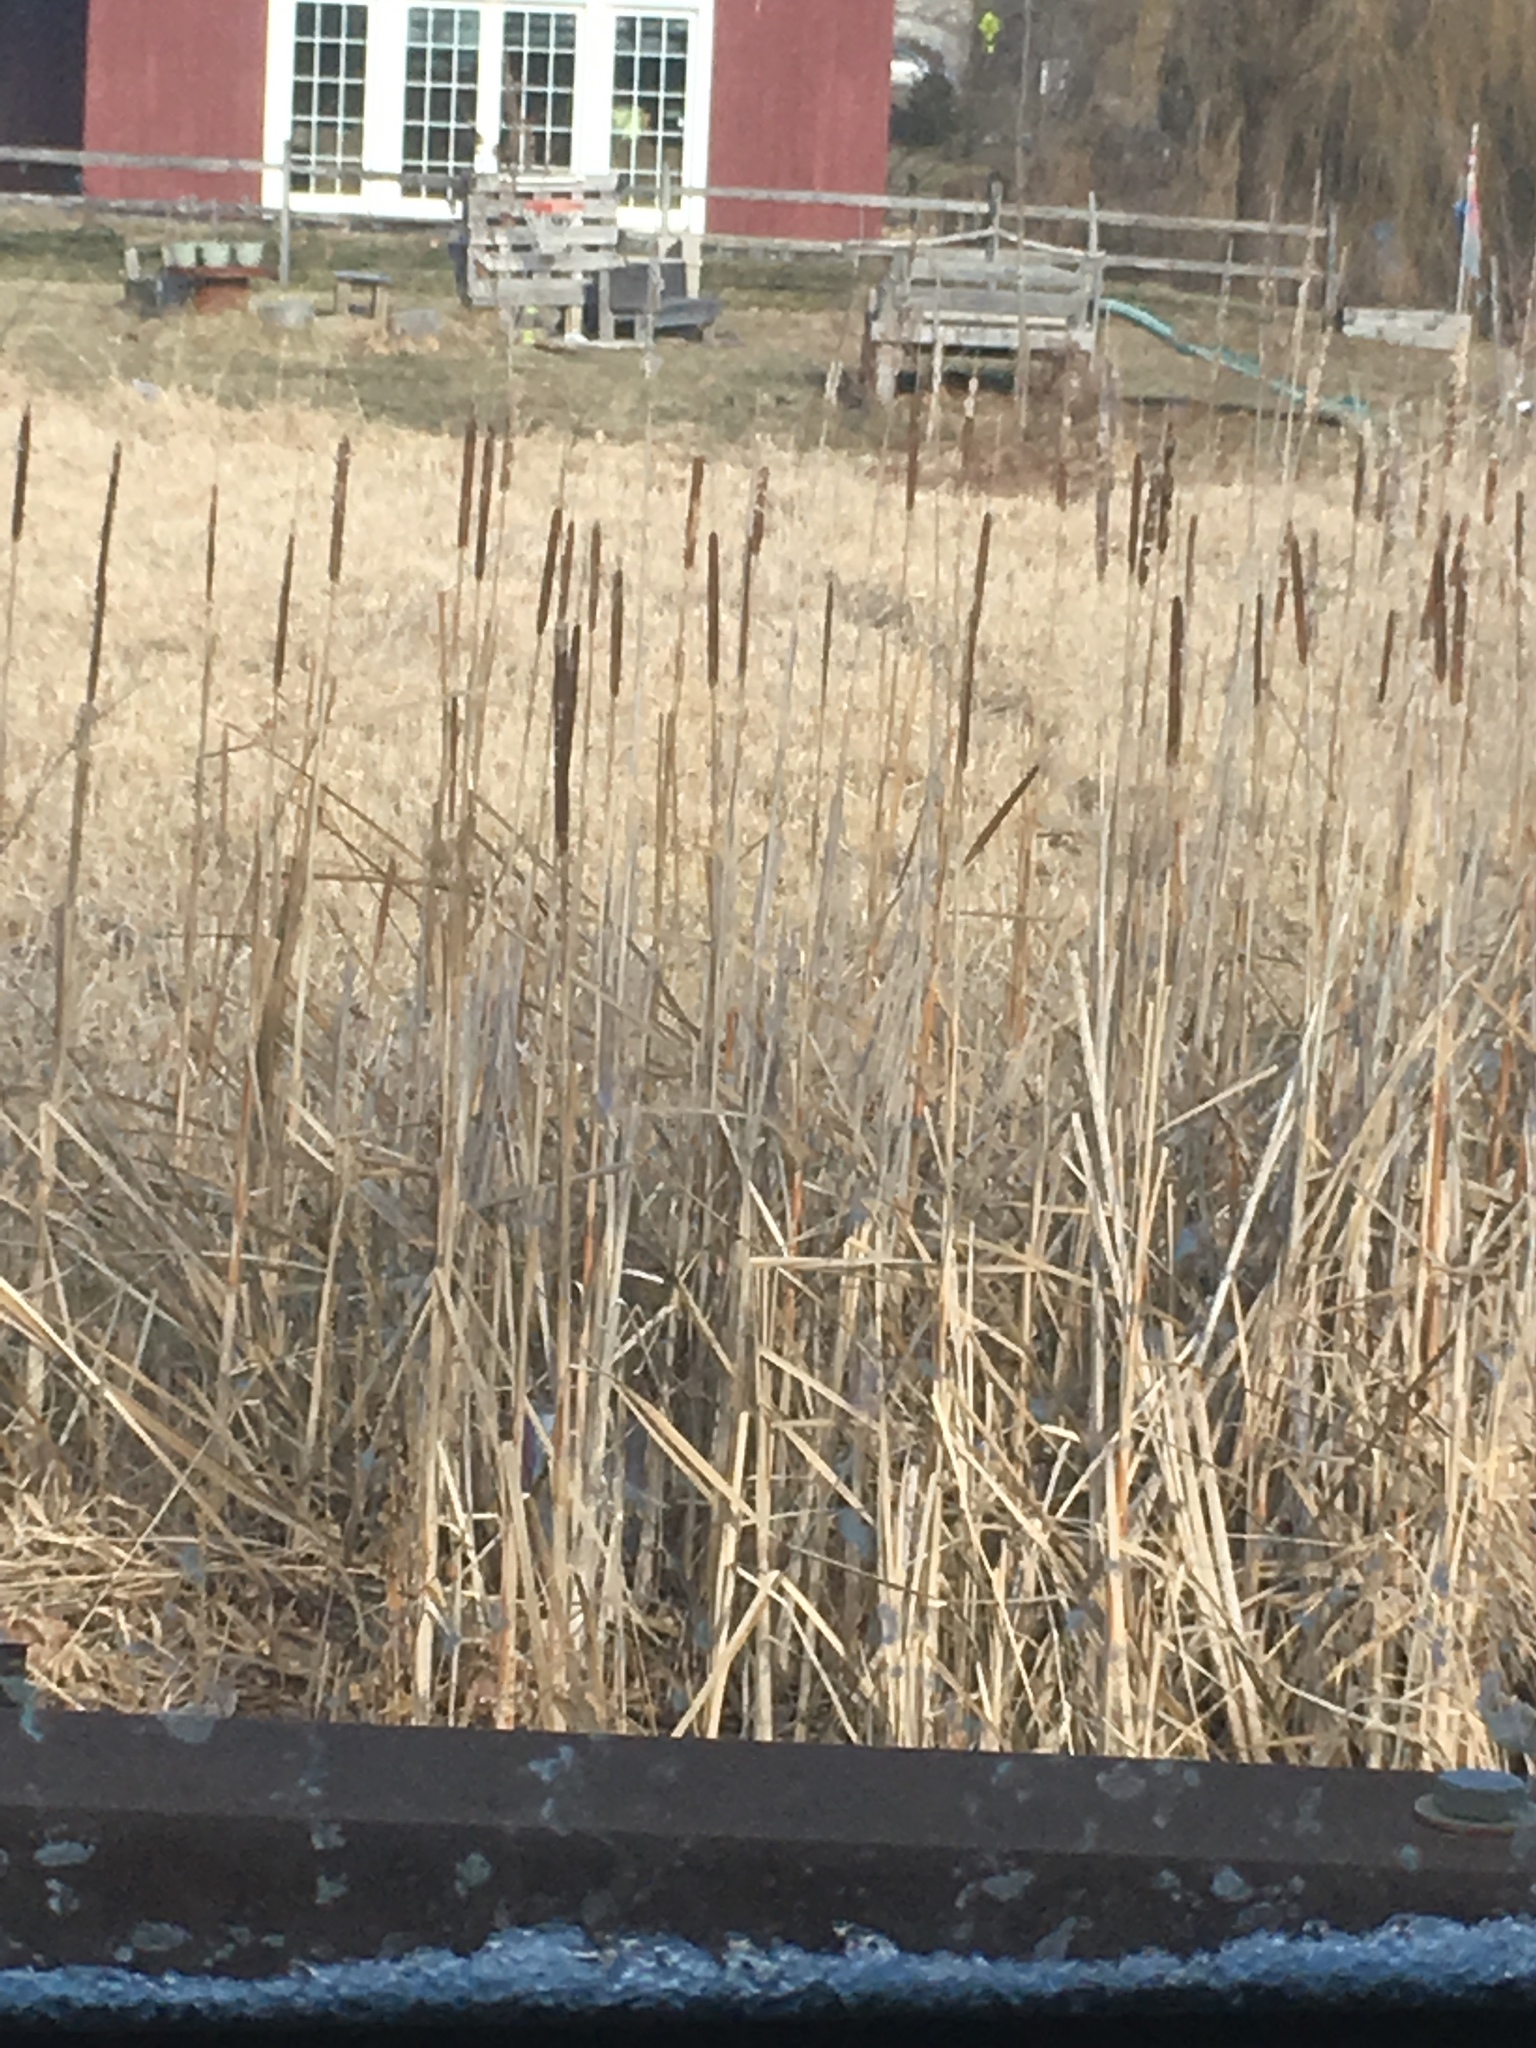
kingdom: Plantae
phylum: Tracheophyta
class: Liliopsida
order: Poales
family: Typhaceae
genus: Typha
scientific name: Typha angustifolia
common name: Lesser bulrush
